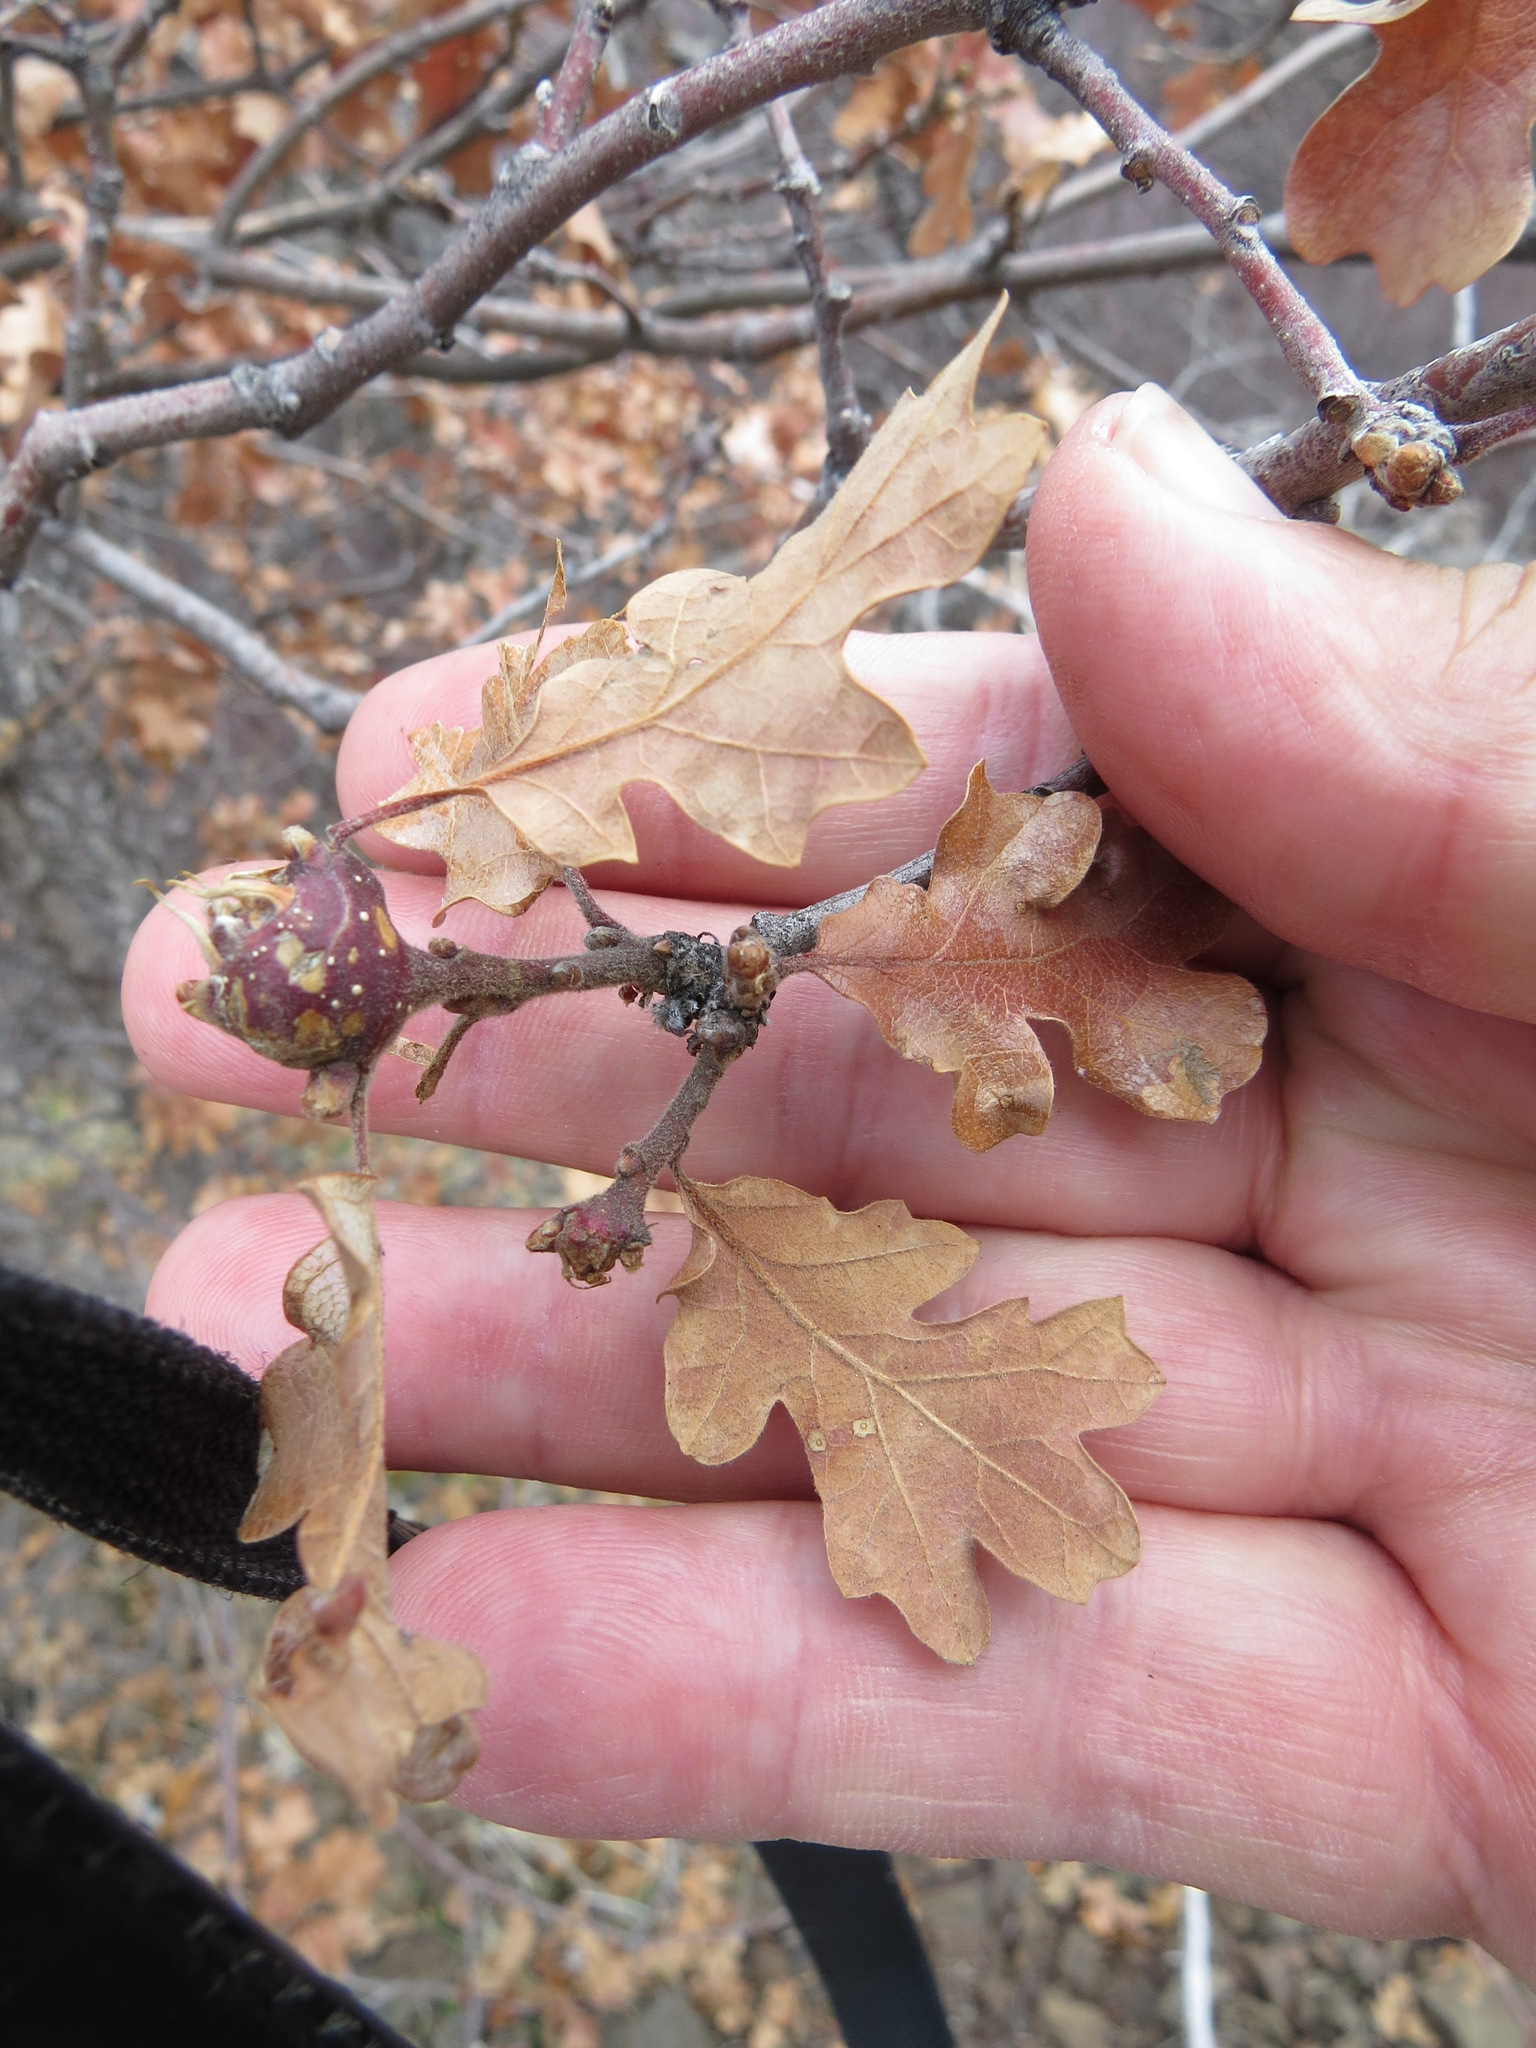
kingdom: Animalia
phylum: Arthropoda
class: Insecta
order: Hymenoptera
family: Cynipidae
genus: Andricus
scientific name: Andricus
